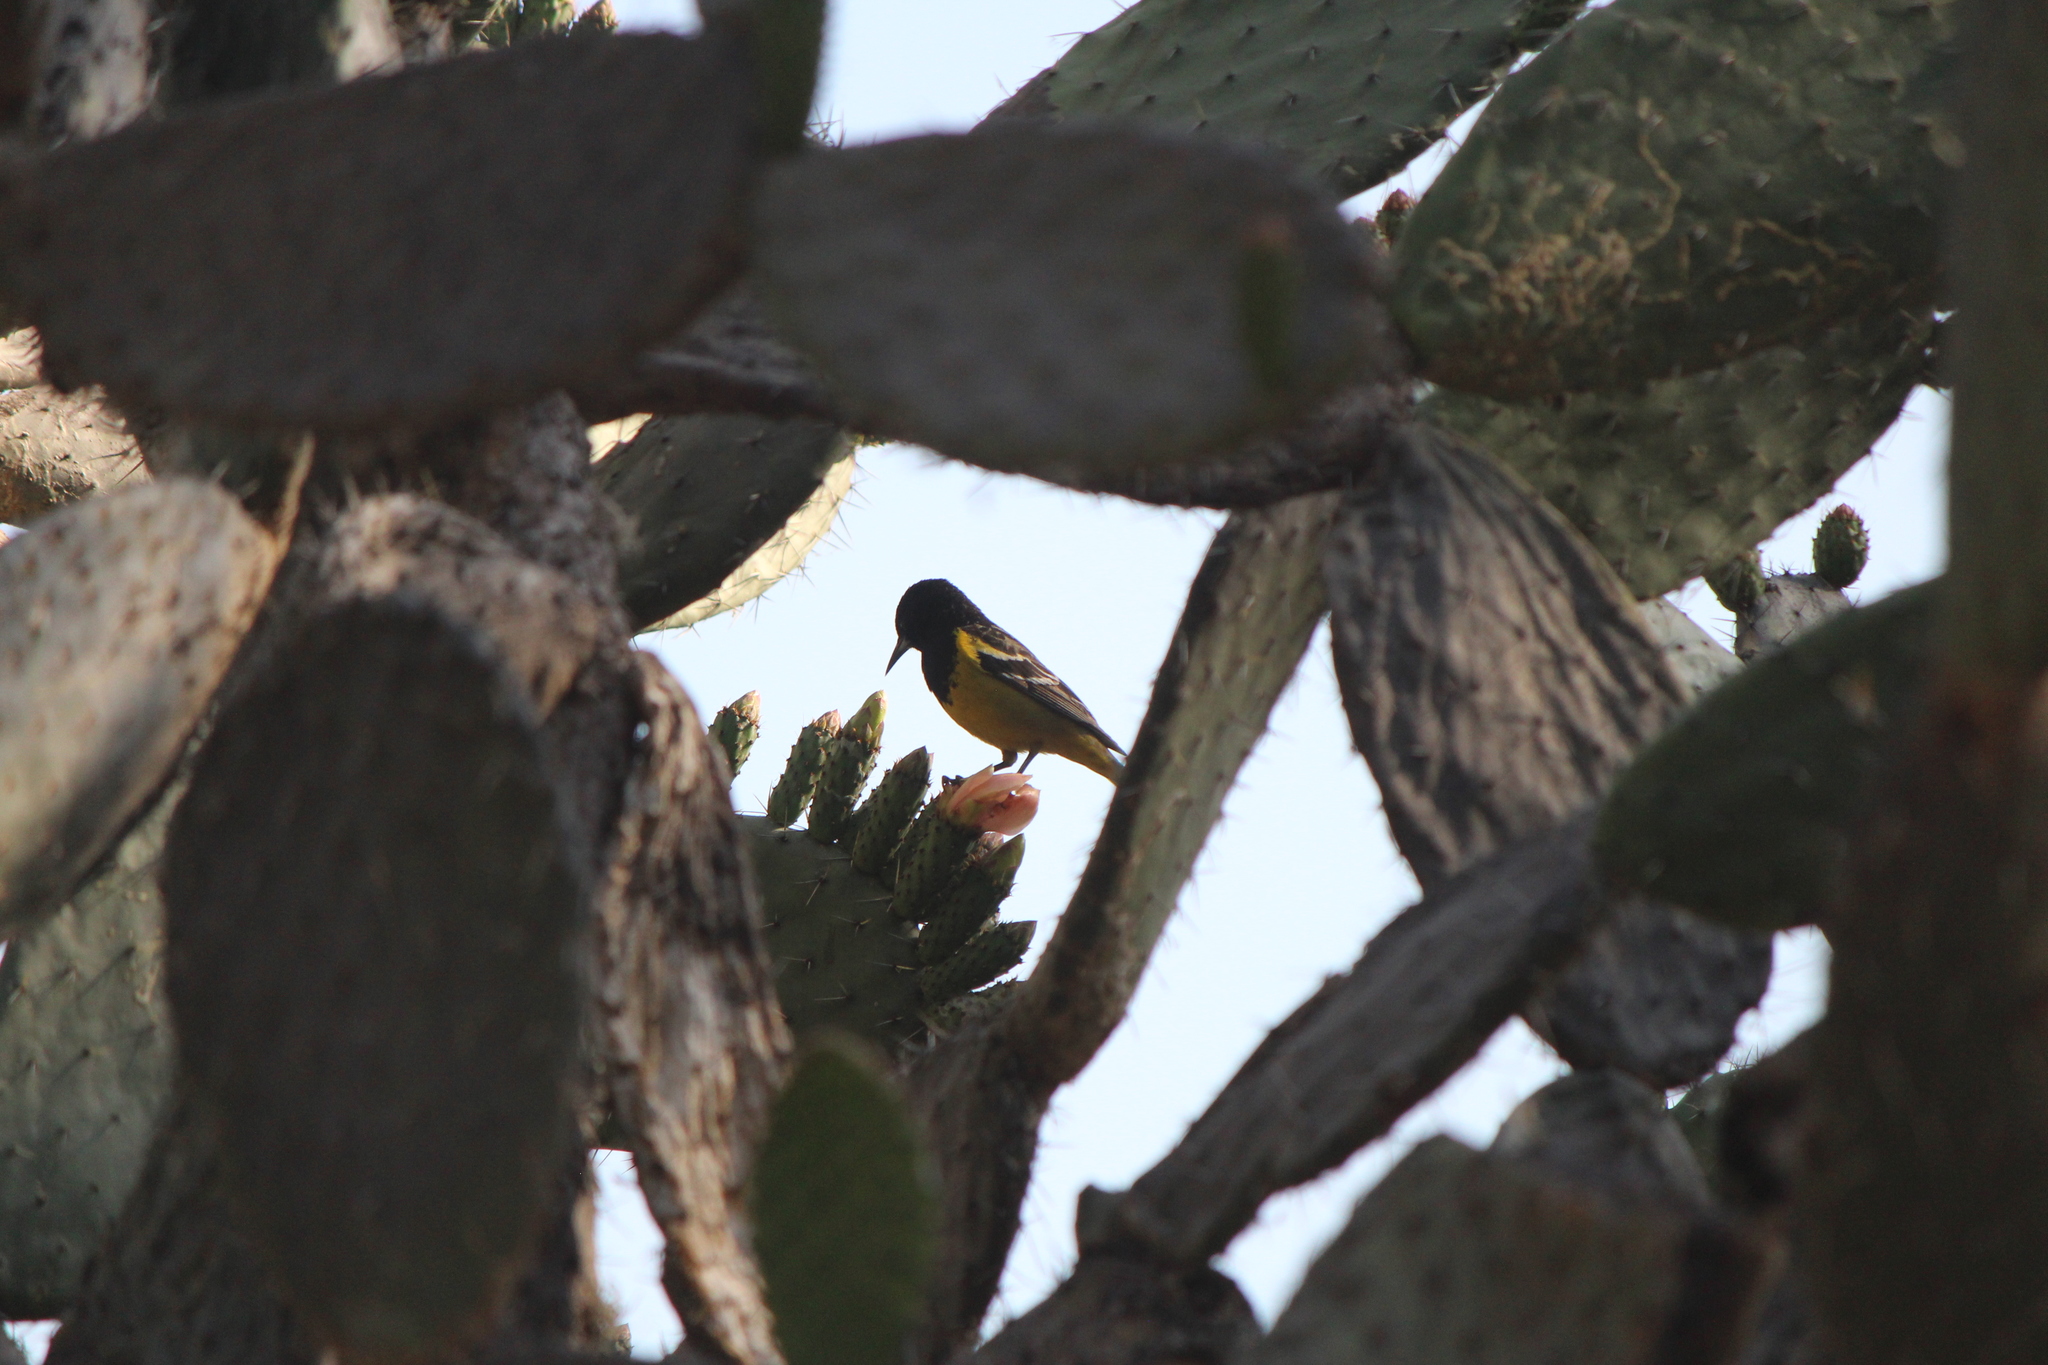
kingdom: Animalia
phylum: Chordata
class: Aves
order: Passeriformes
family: Icteridae
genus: Icterus
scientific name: Icterus parisorum
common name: Scott's oriole
